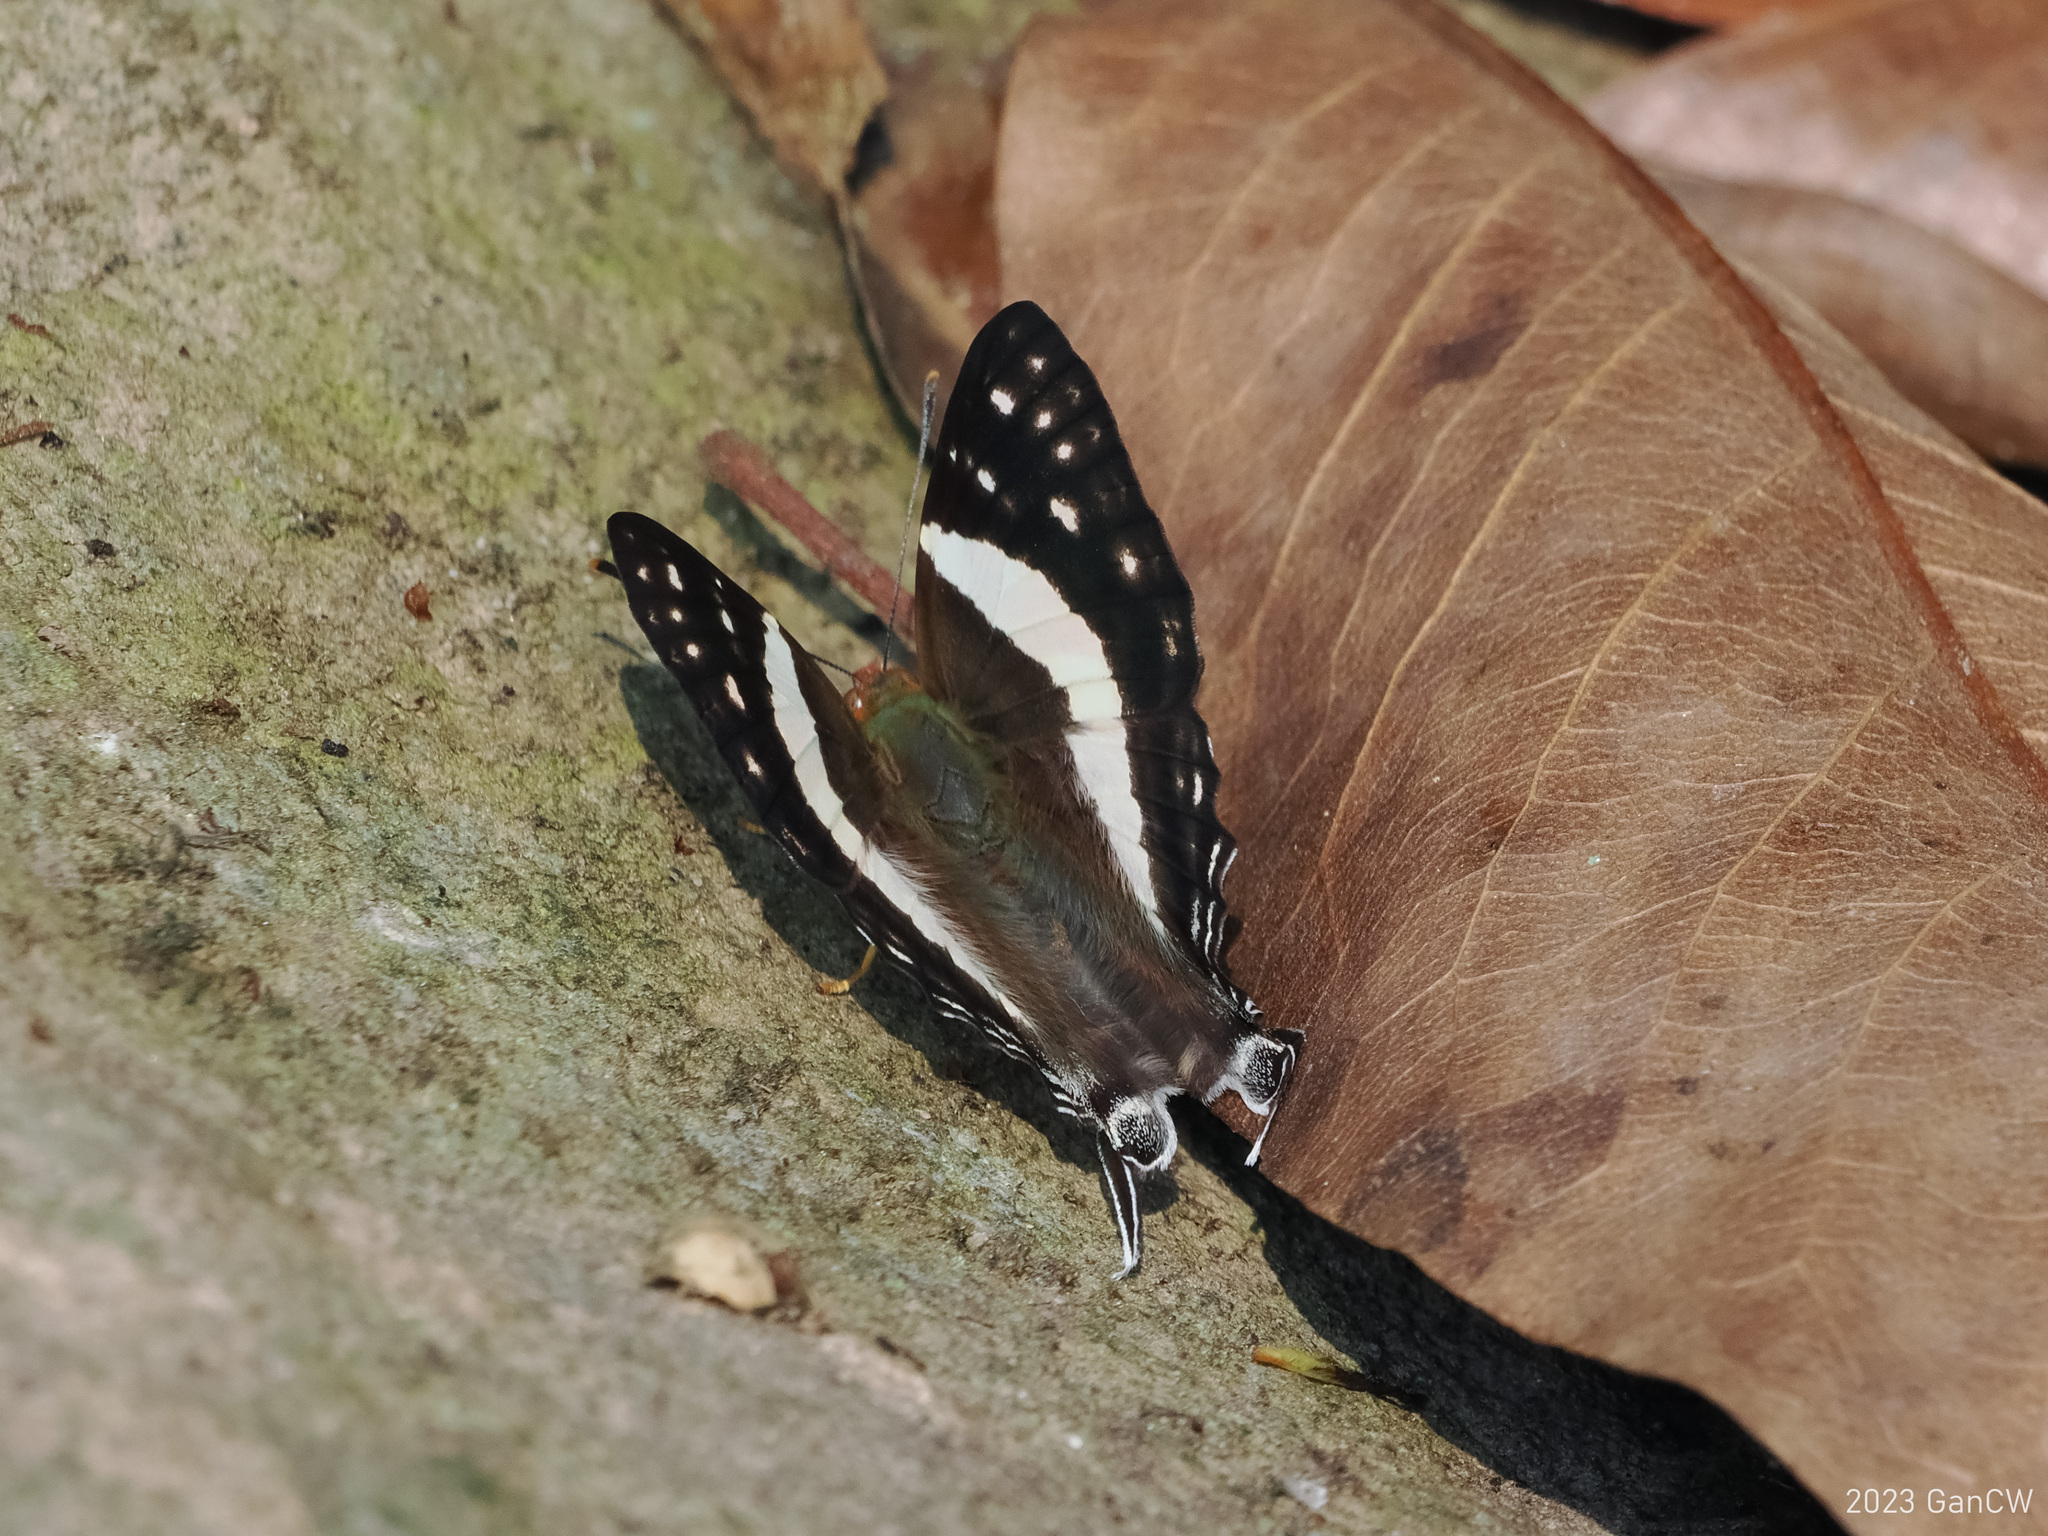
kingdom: Animalia
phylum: Arthropoda
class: Insecta
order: Lepidoptera
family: Lycaenidae
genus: Dodona
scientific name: Dodona deodata
